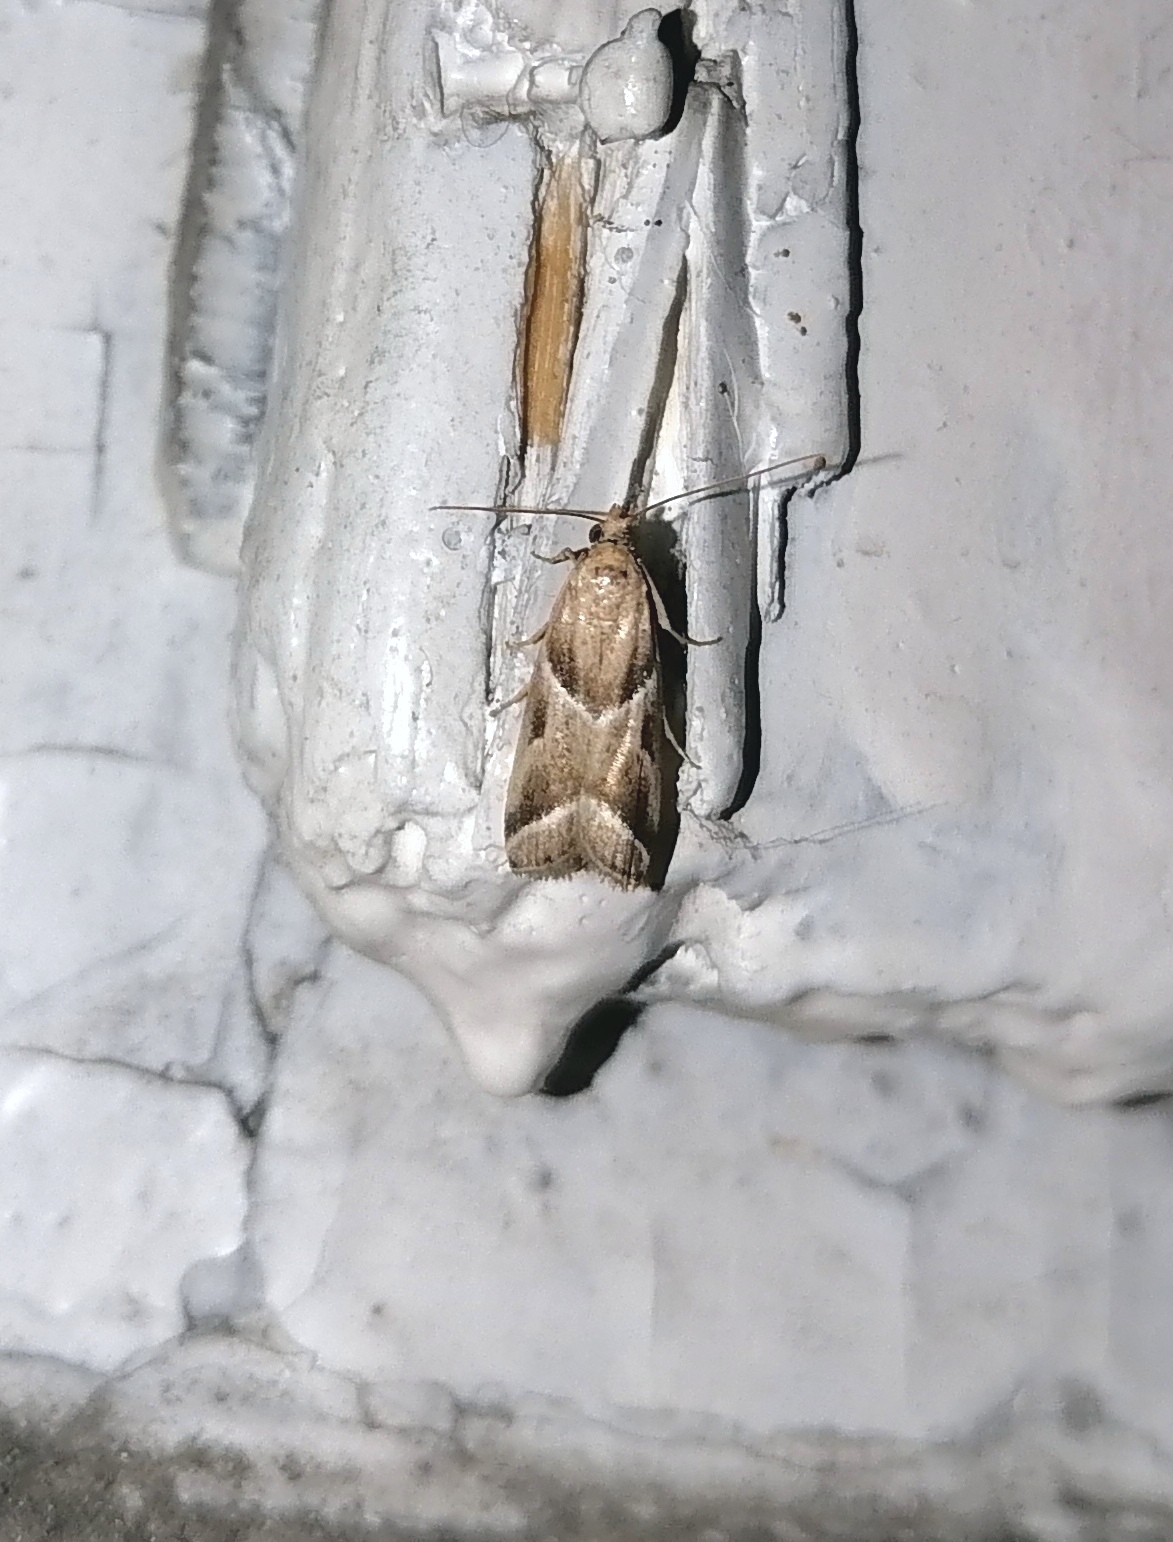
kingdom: Animalia
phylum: Arthropoda
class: Insecta
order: Lepidoptera
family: Pyralidae
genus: Nyctegretis
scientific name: Nyctegretis lineana
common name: Agate knot-horn
